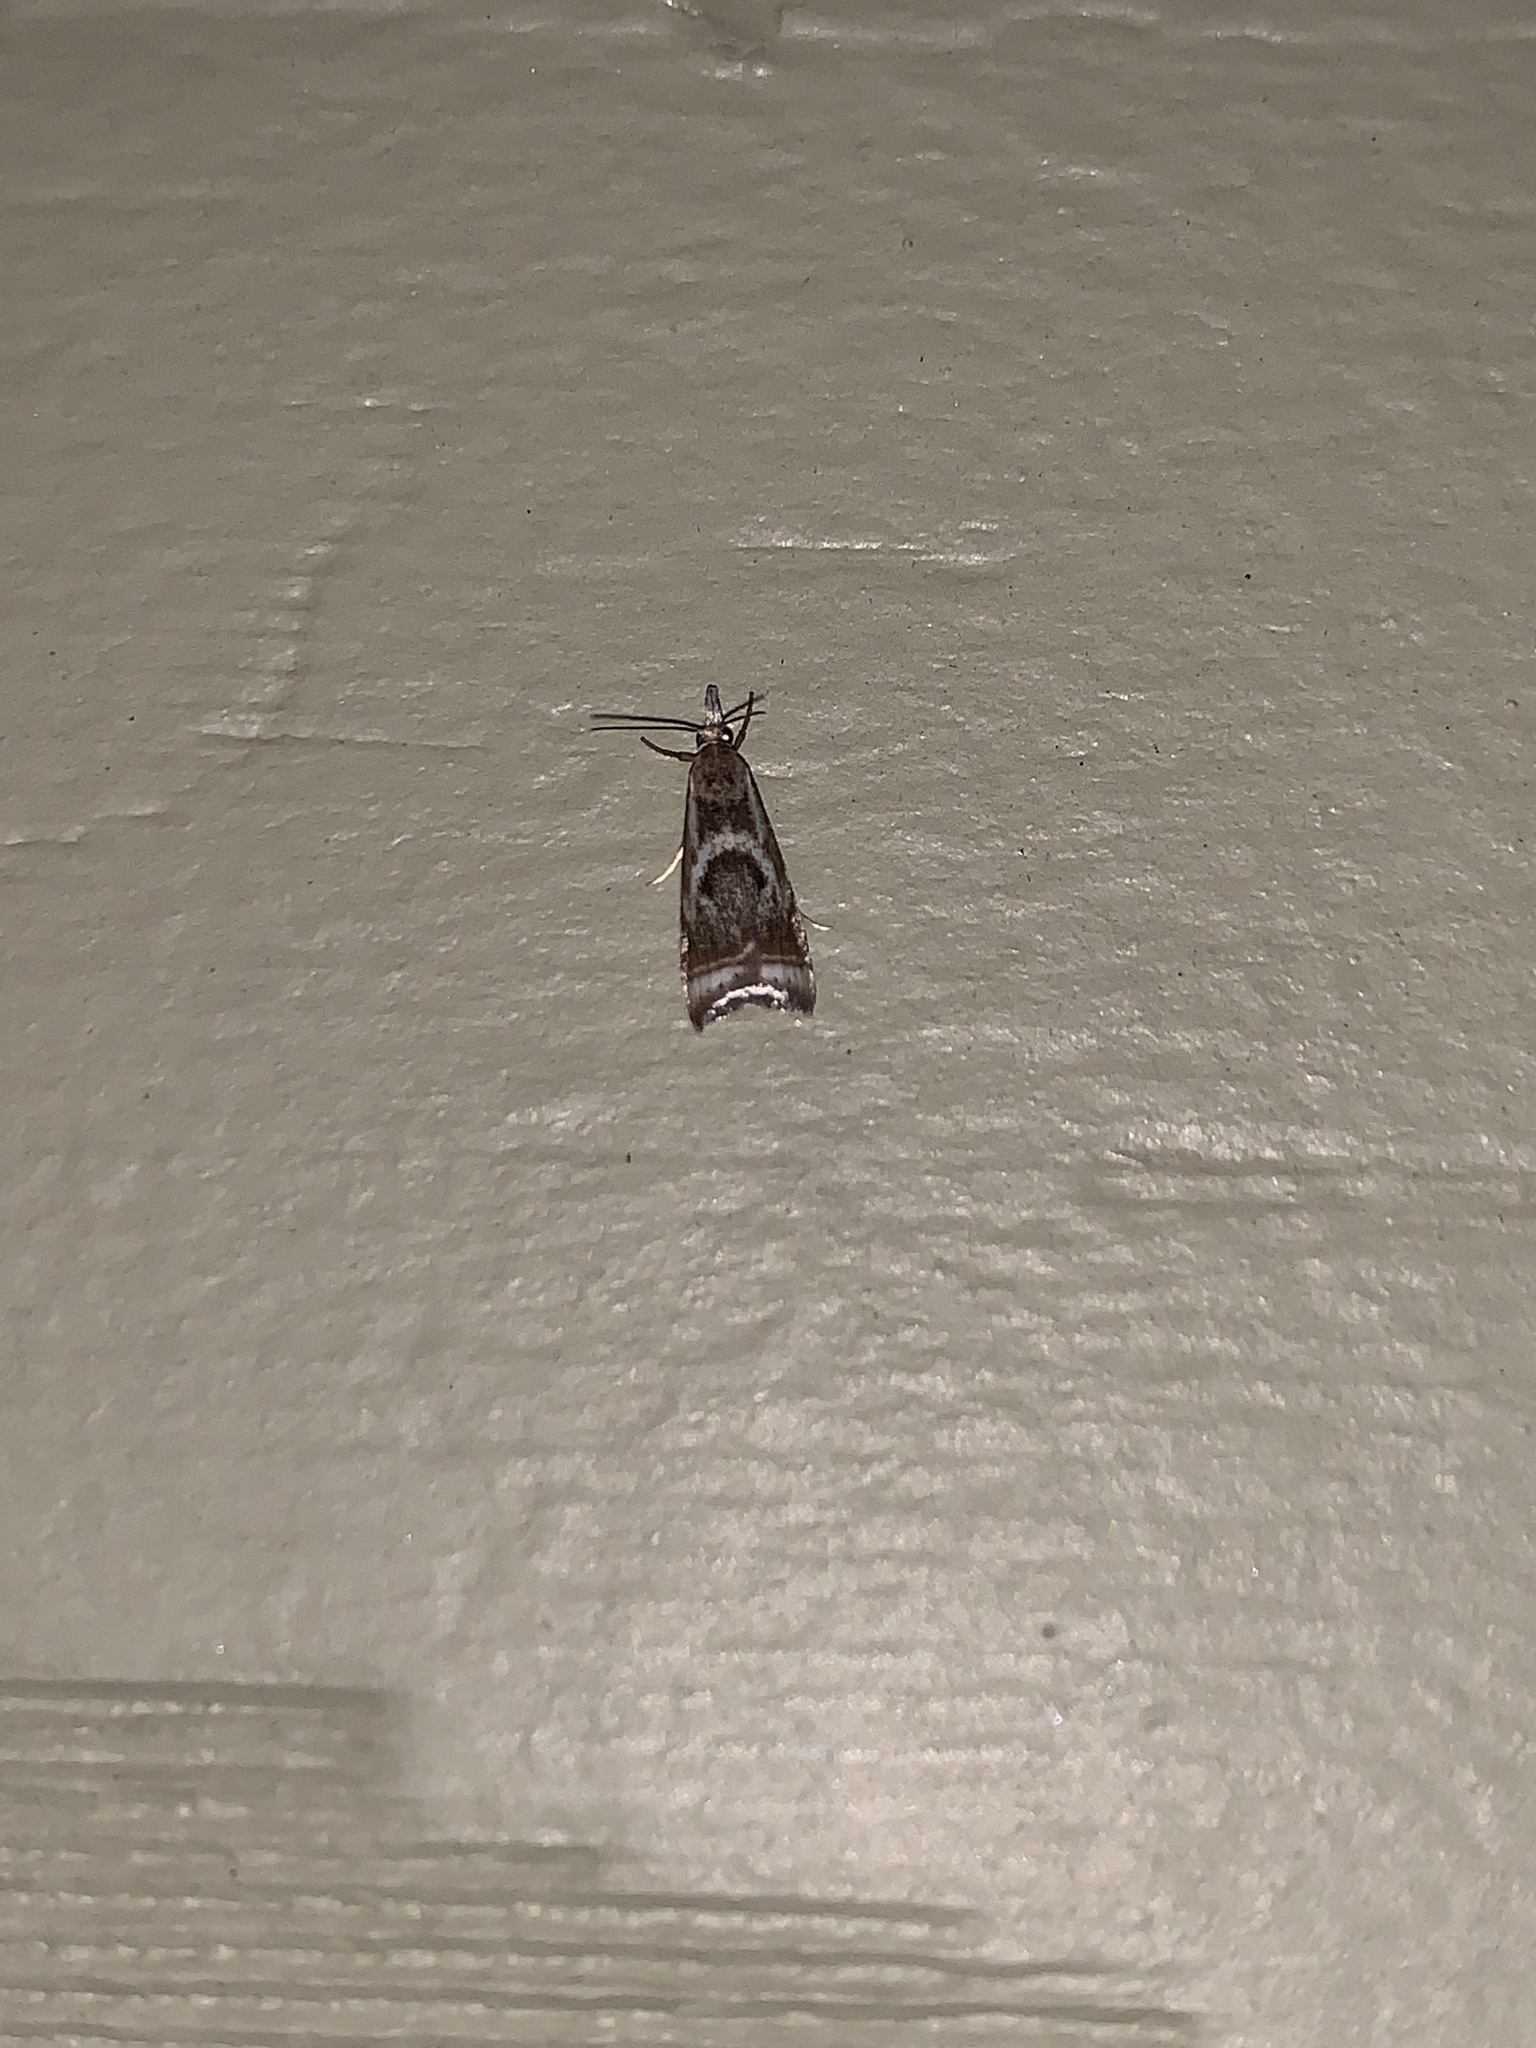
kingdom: Animalia
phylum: Arthropoda
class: Insecta
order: Lepidoptera
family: Crambidae
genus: Microcrambus
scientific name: Microcrambus elegans
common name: Elegant grass-veneer
